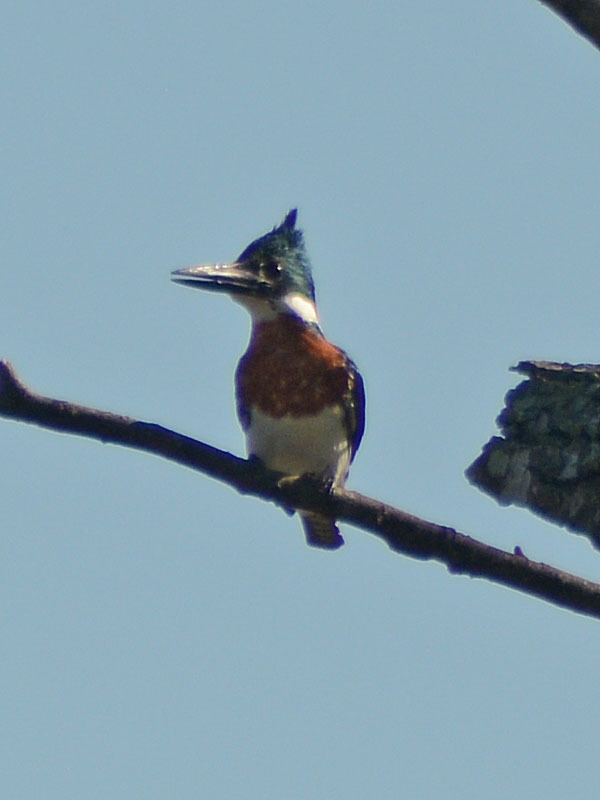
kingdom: Animalia
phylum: Chordata
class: Aves
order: Coraciiformes
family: Alcedinidae
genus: Chloroceryle
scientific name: Chloroceryle amazona
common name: Amazon kingfisher
